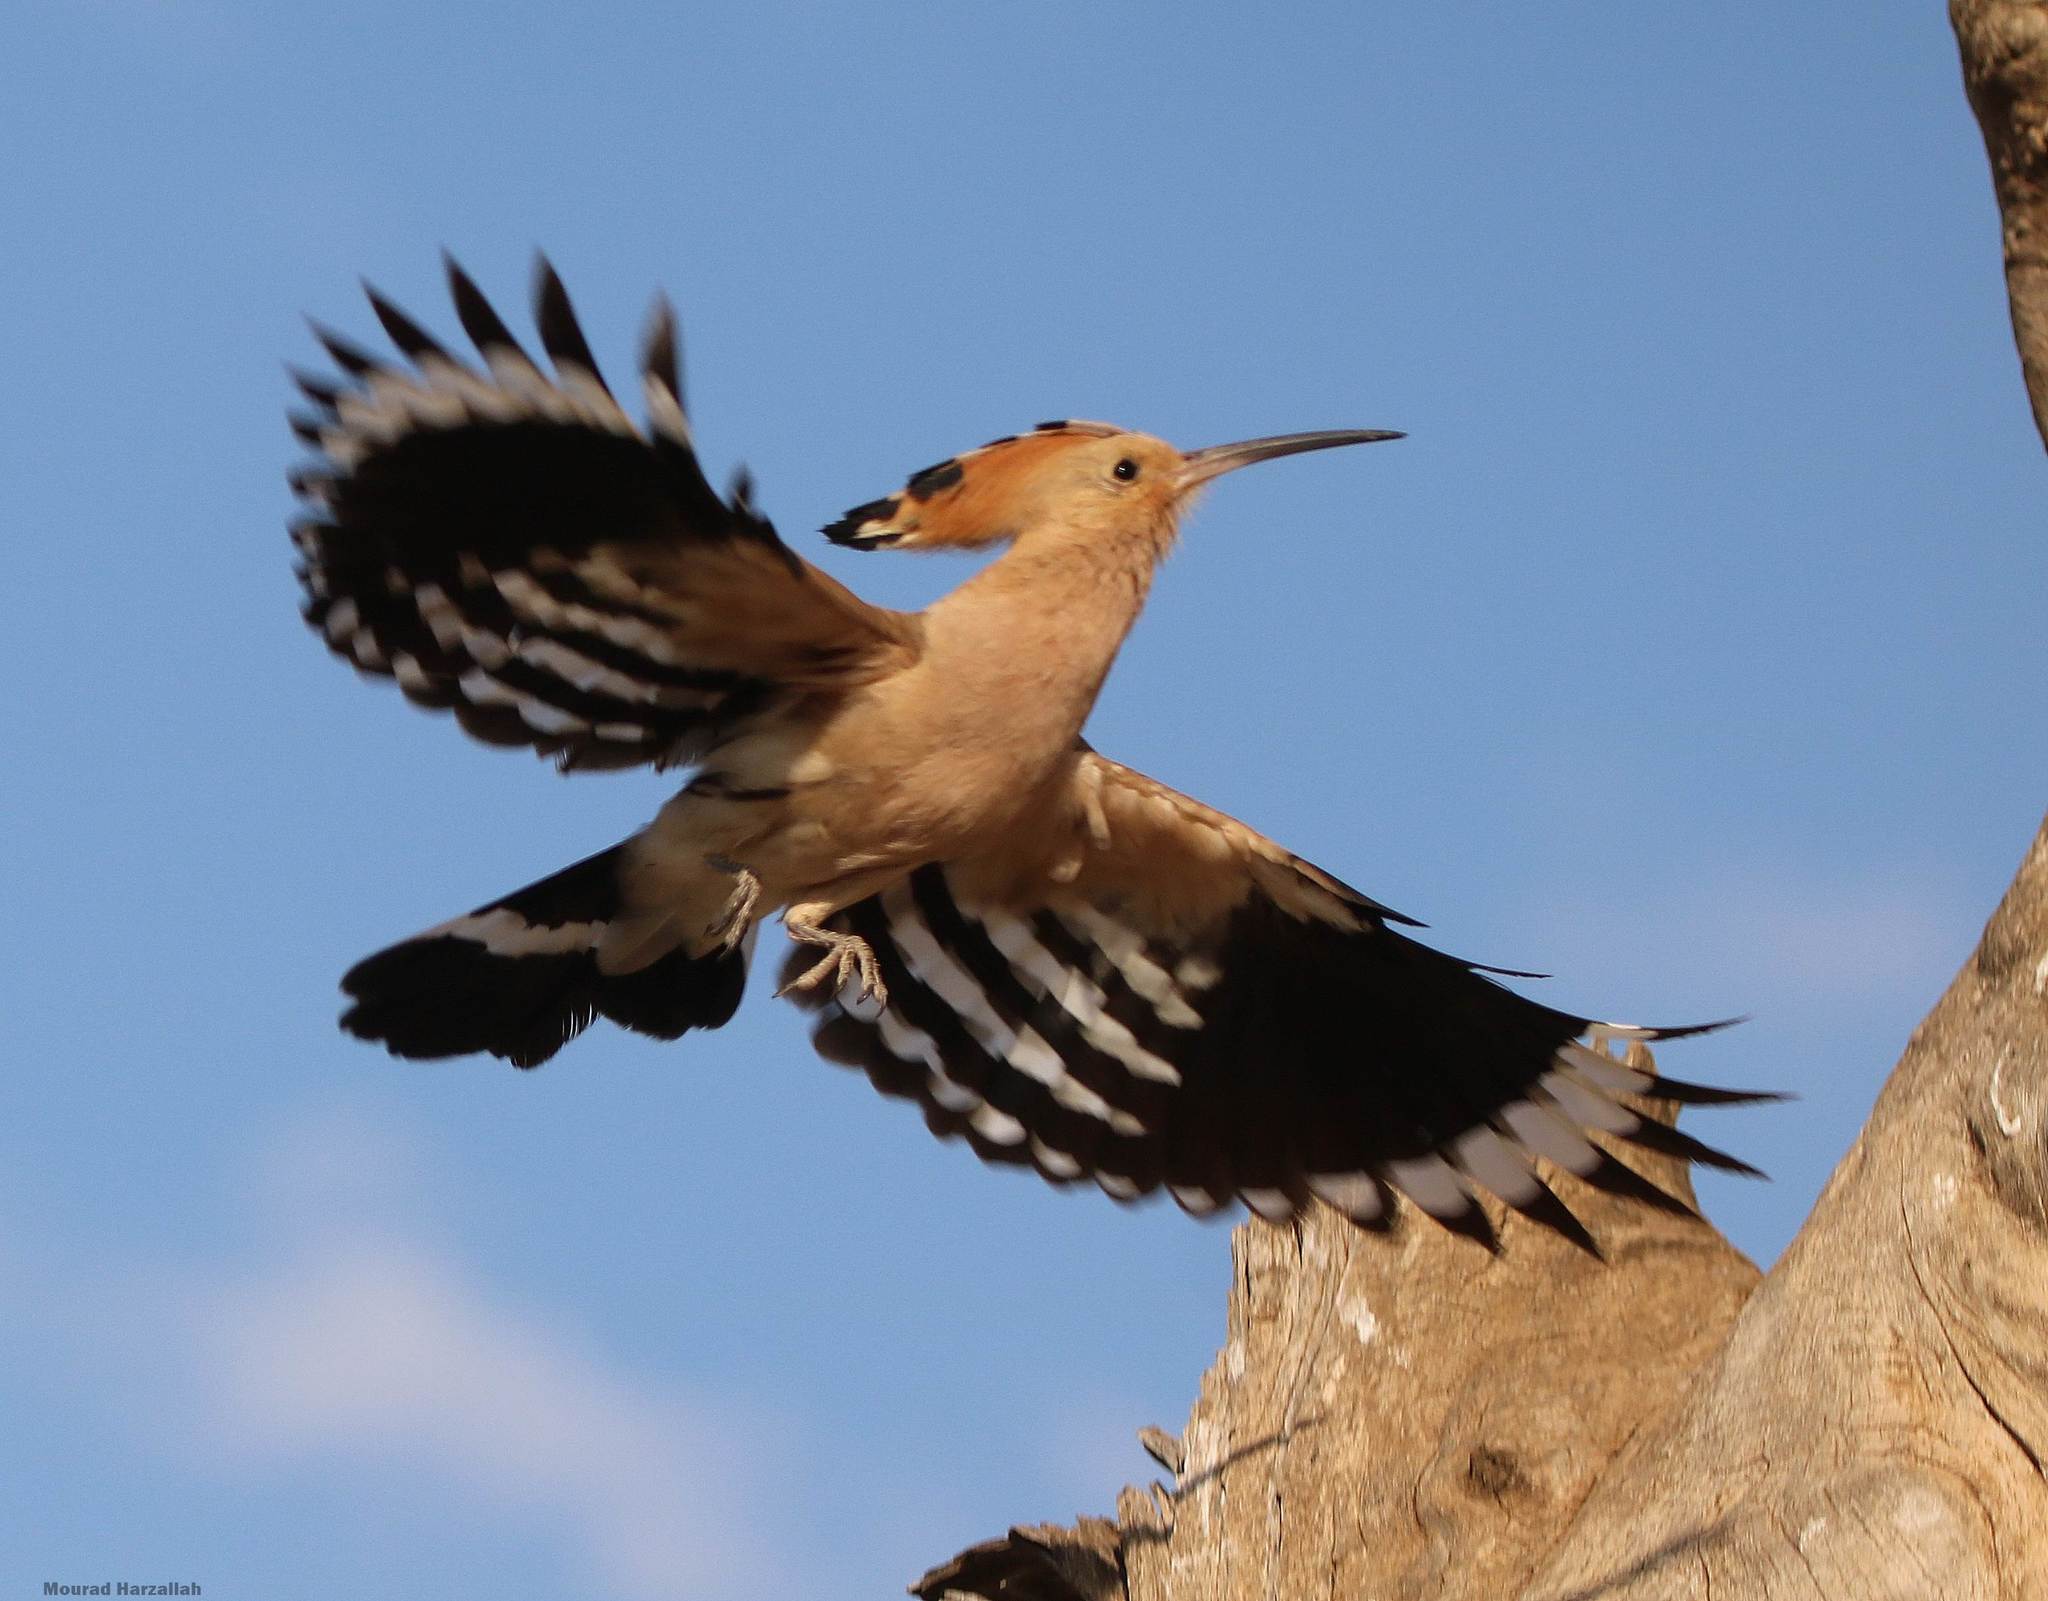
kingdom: Animalia
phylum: Chordata
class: Aves
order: Bucerotiformes
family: Upupidae
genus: Upupa
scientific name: Upupa epops
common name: Eurasian hoopoe
